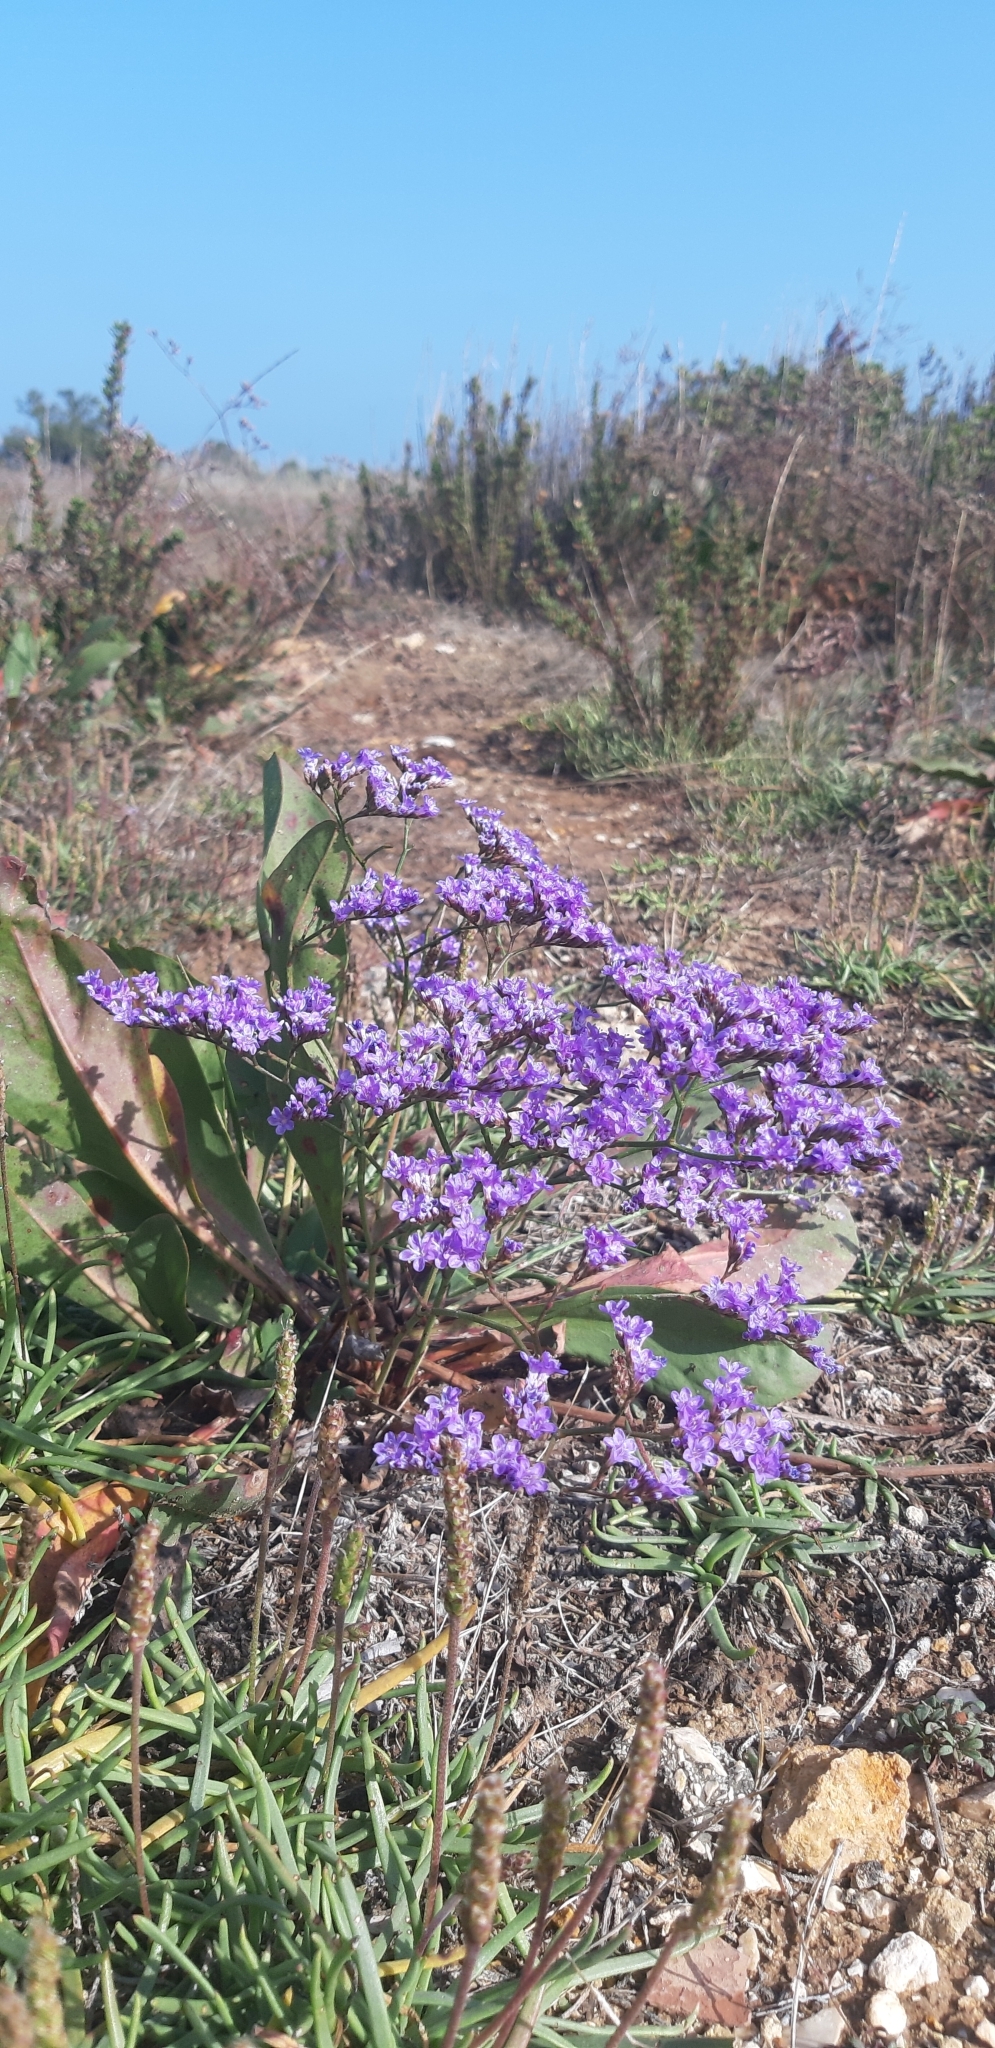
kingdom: Plantae
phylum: Tracheophyta
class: Magnoliopsida
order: Caryophyllales
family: Plumbaginaceae
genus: Limonium
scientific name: Limonium narbonense
